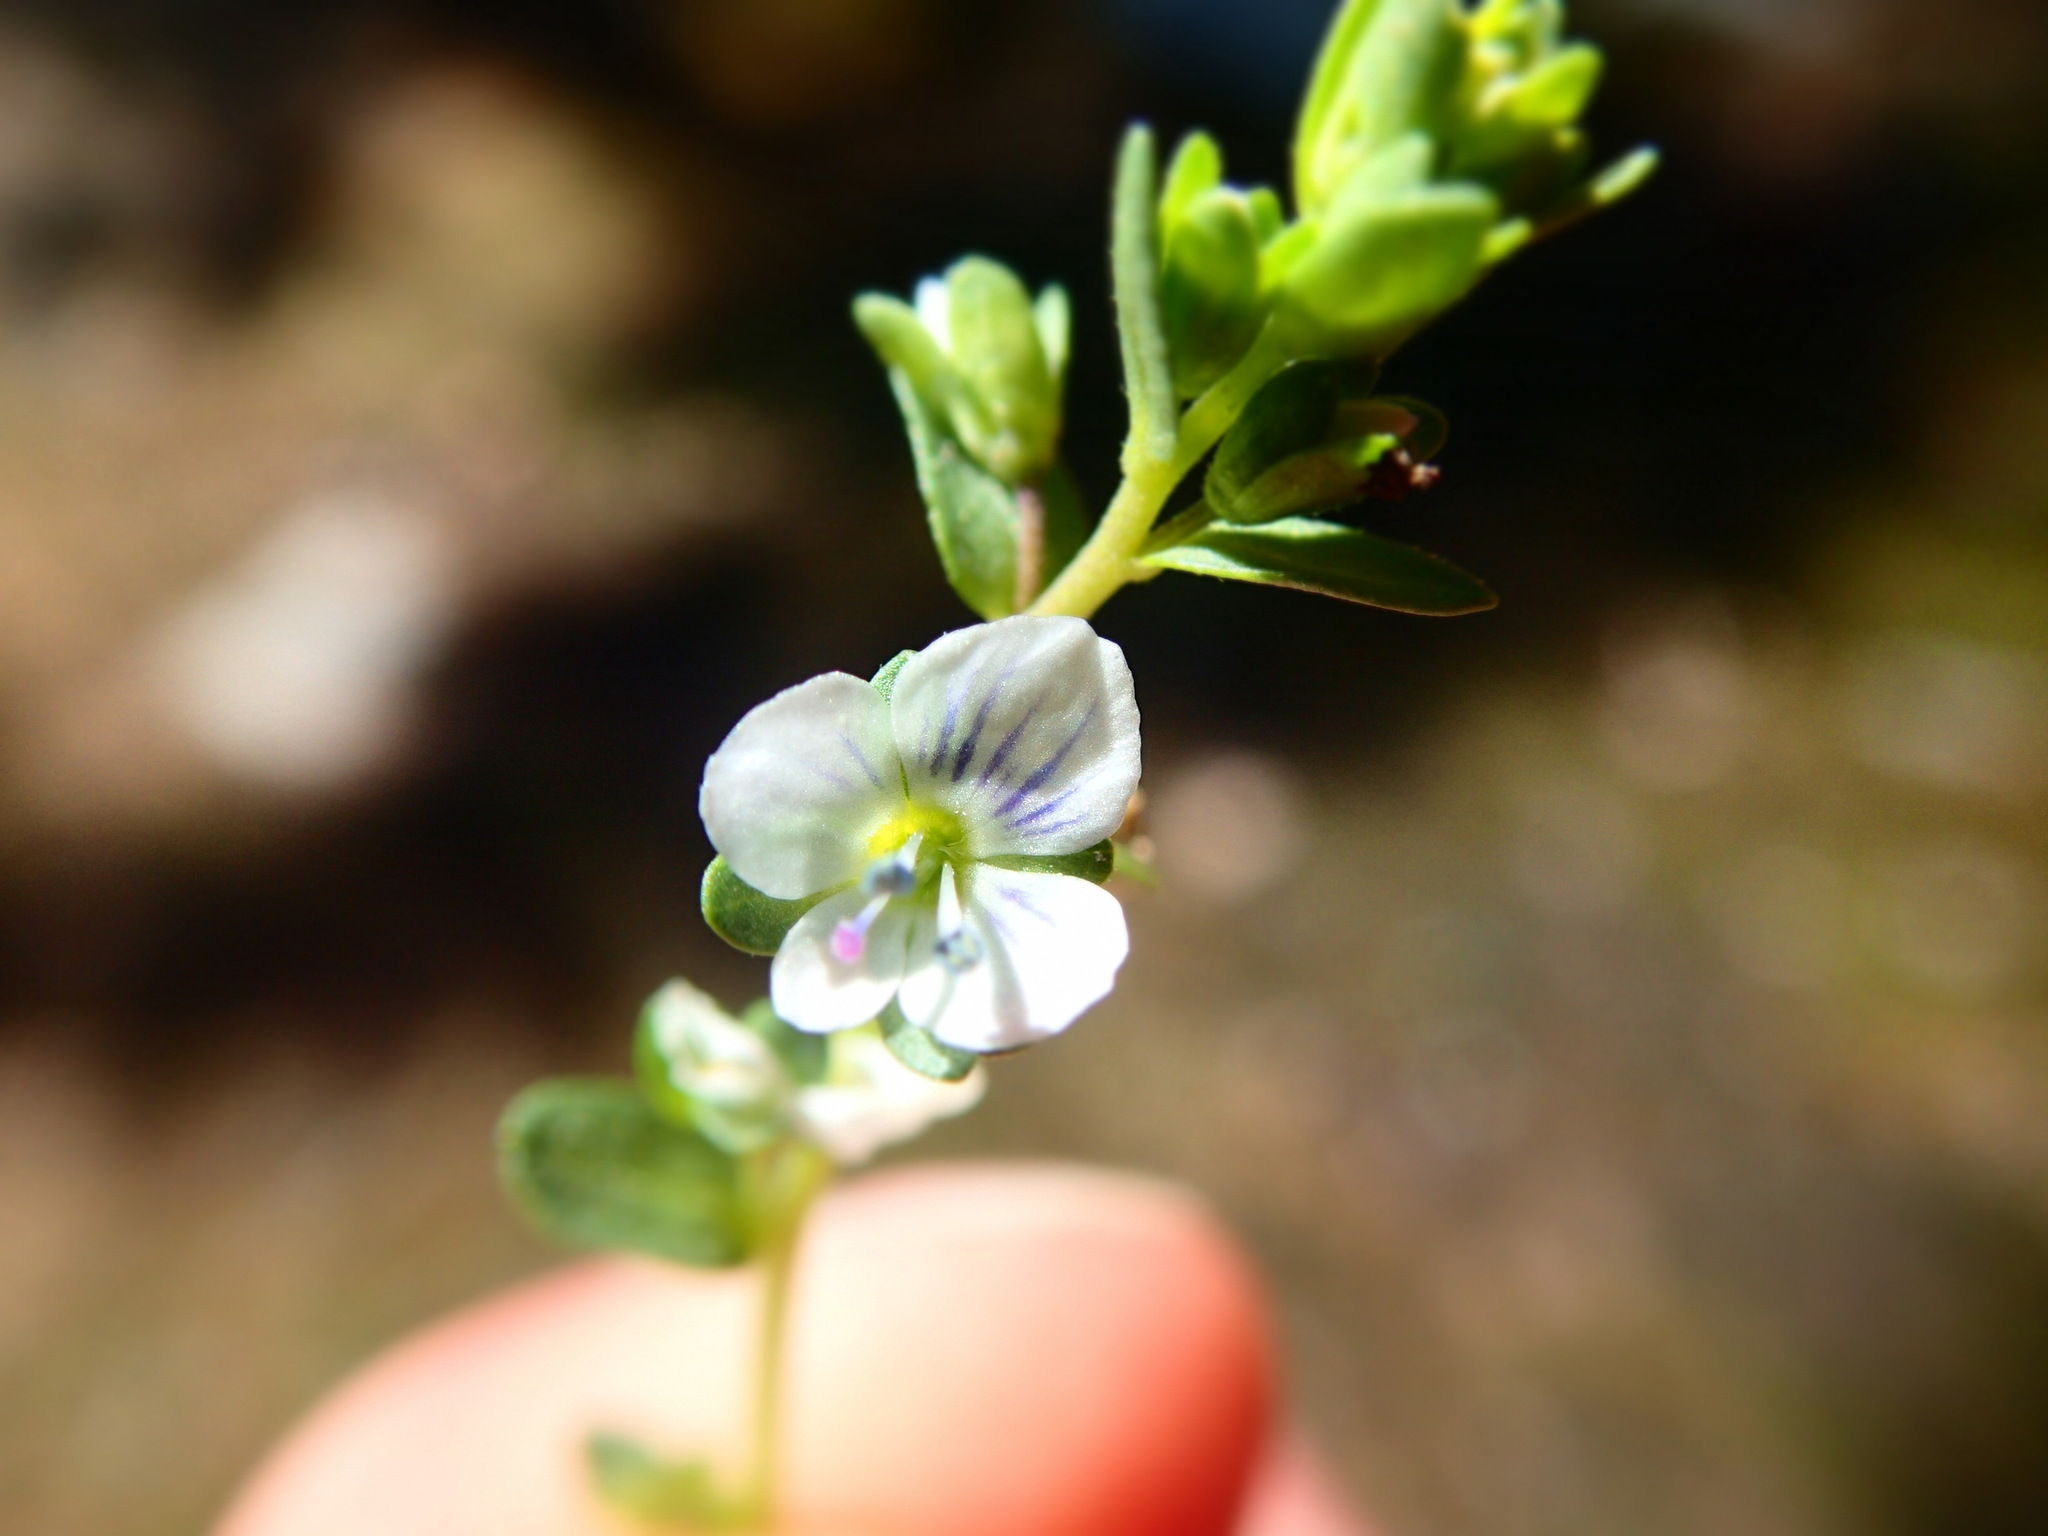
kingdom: Plantae
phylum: Tracheophyta
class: Magnoliopsida
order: Lamiales
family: Plantaginaceae
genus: Veronica
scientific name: Veronica serpyllifolia
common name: Thyme-leaved speedwell
